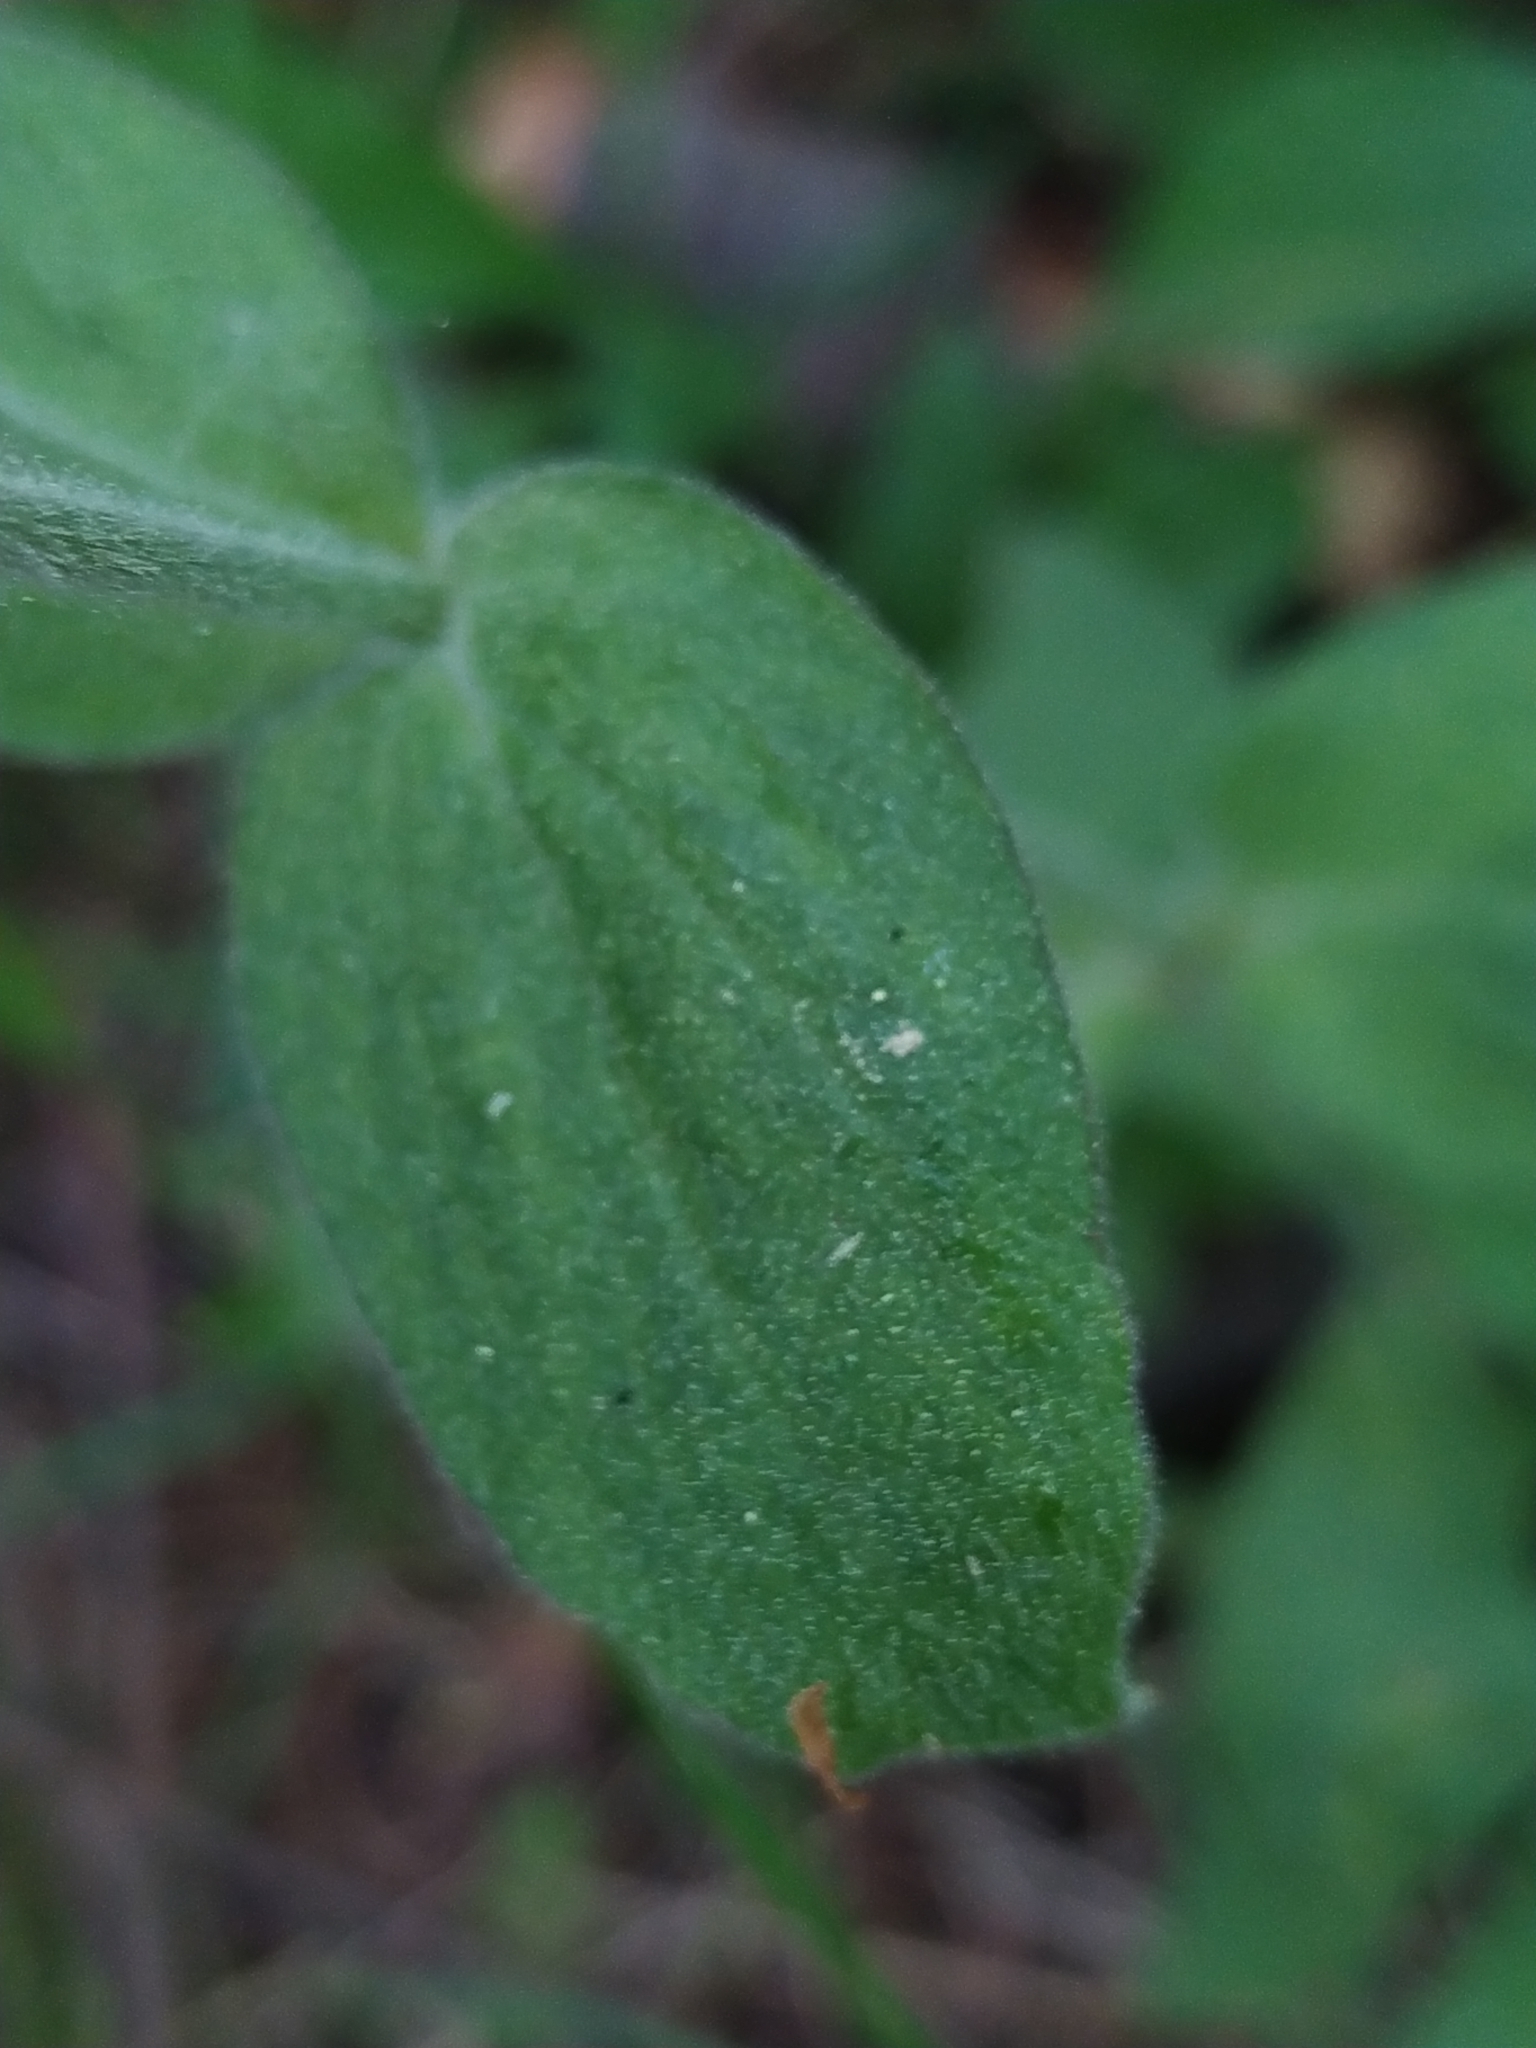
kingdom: Plantae
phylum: Tracheophyta
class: Magnoliopsida
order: Caryophyllales
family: Caryophyllaceae
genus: Silene
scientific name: Silene dioica
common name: Red campion
